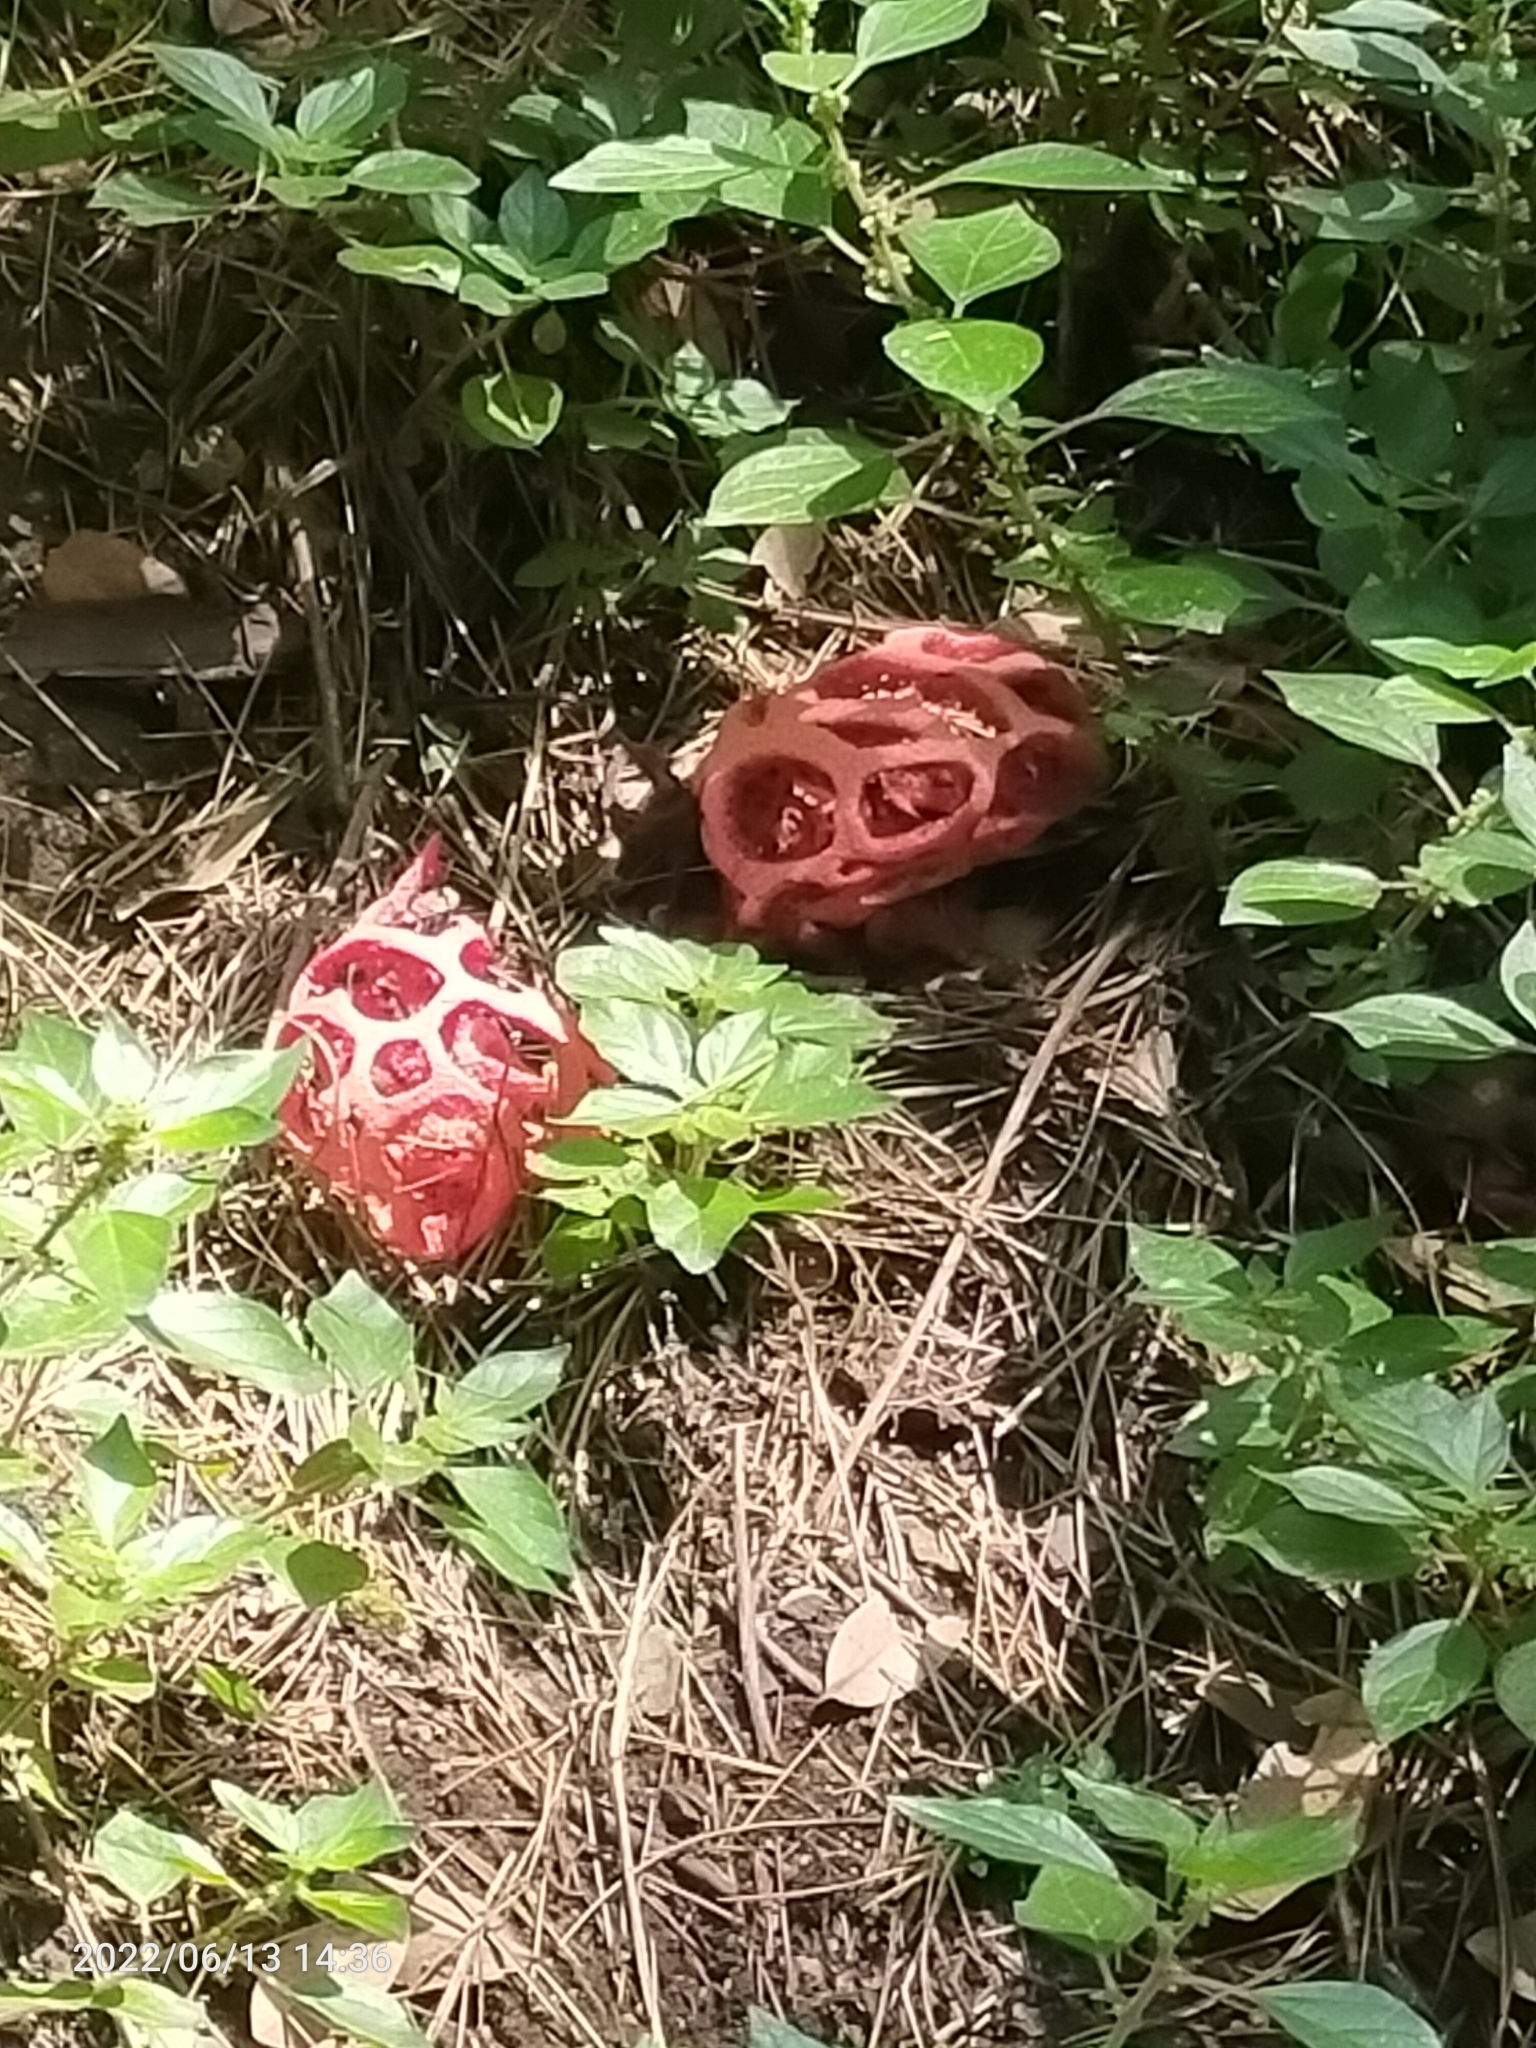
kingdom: Fungi
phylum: Basidiomycota
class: Agaricomycetes
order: Phallales
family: Phallaceae
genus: Clathrus
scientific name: Clathrus ruber
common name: Red cage
